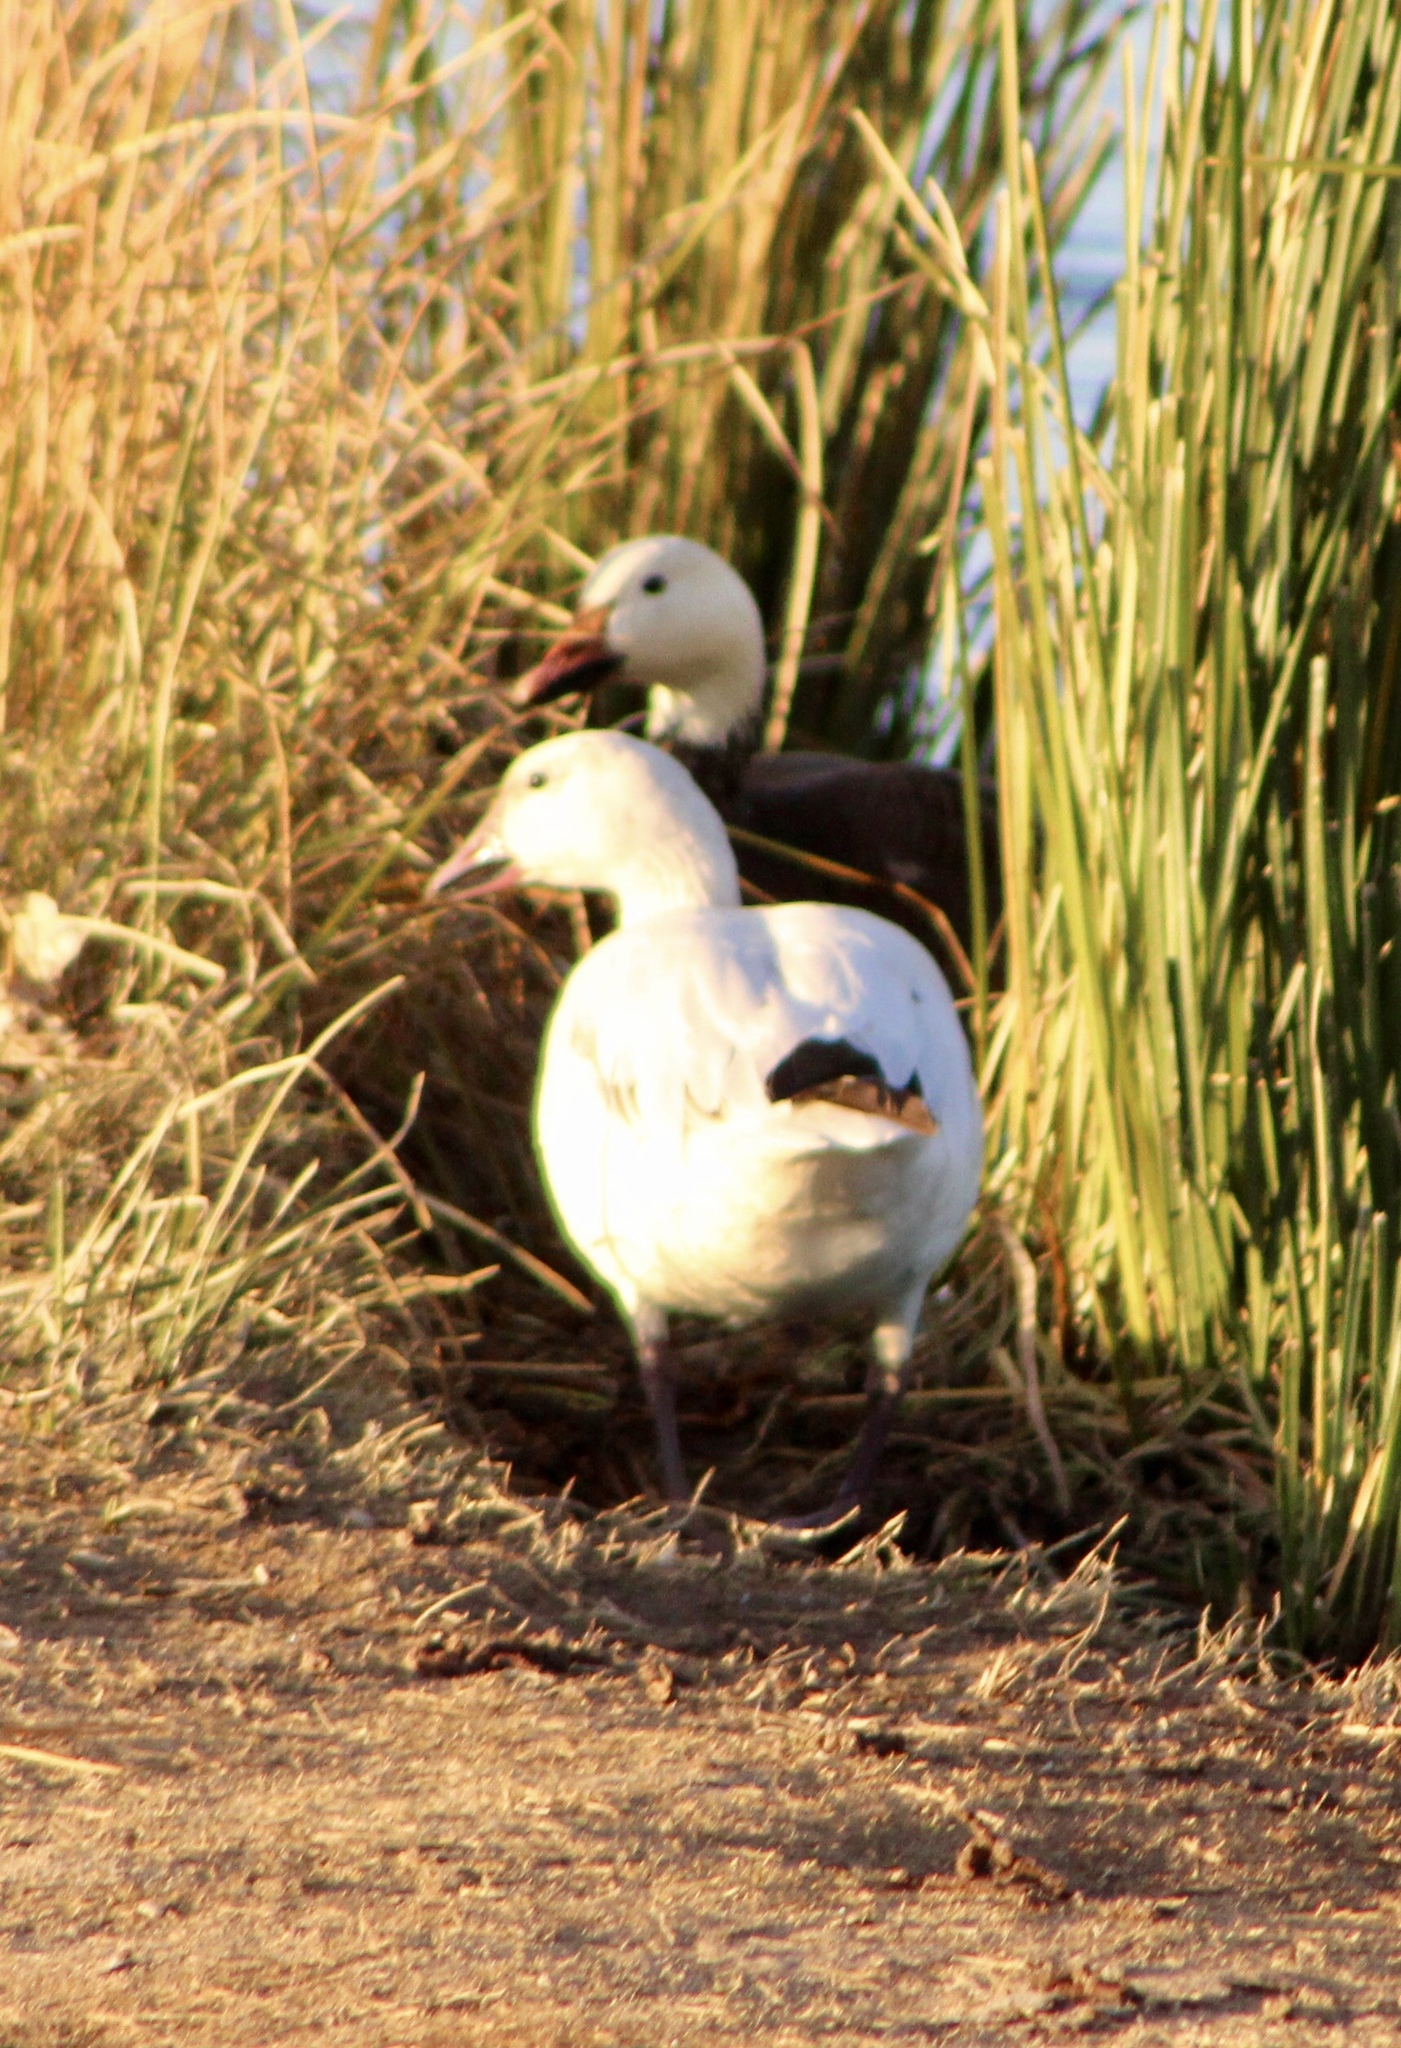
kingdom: Animalia
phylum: Chordata
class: Aves
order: Anseriformes
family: Anatidae
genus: Anser
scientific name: Anser caerulescens
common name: Snow goose
